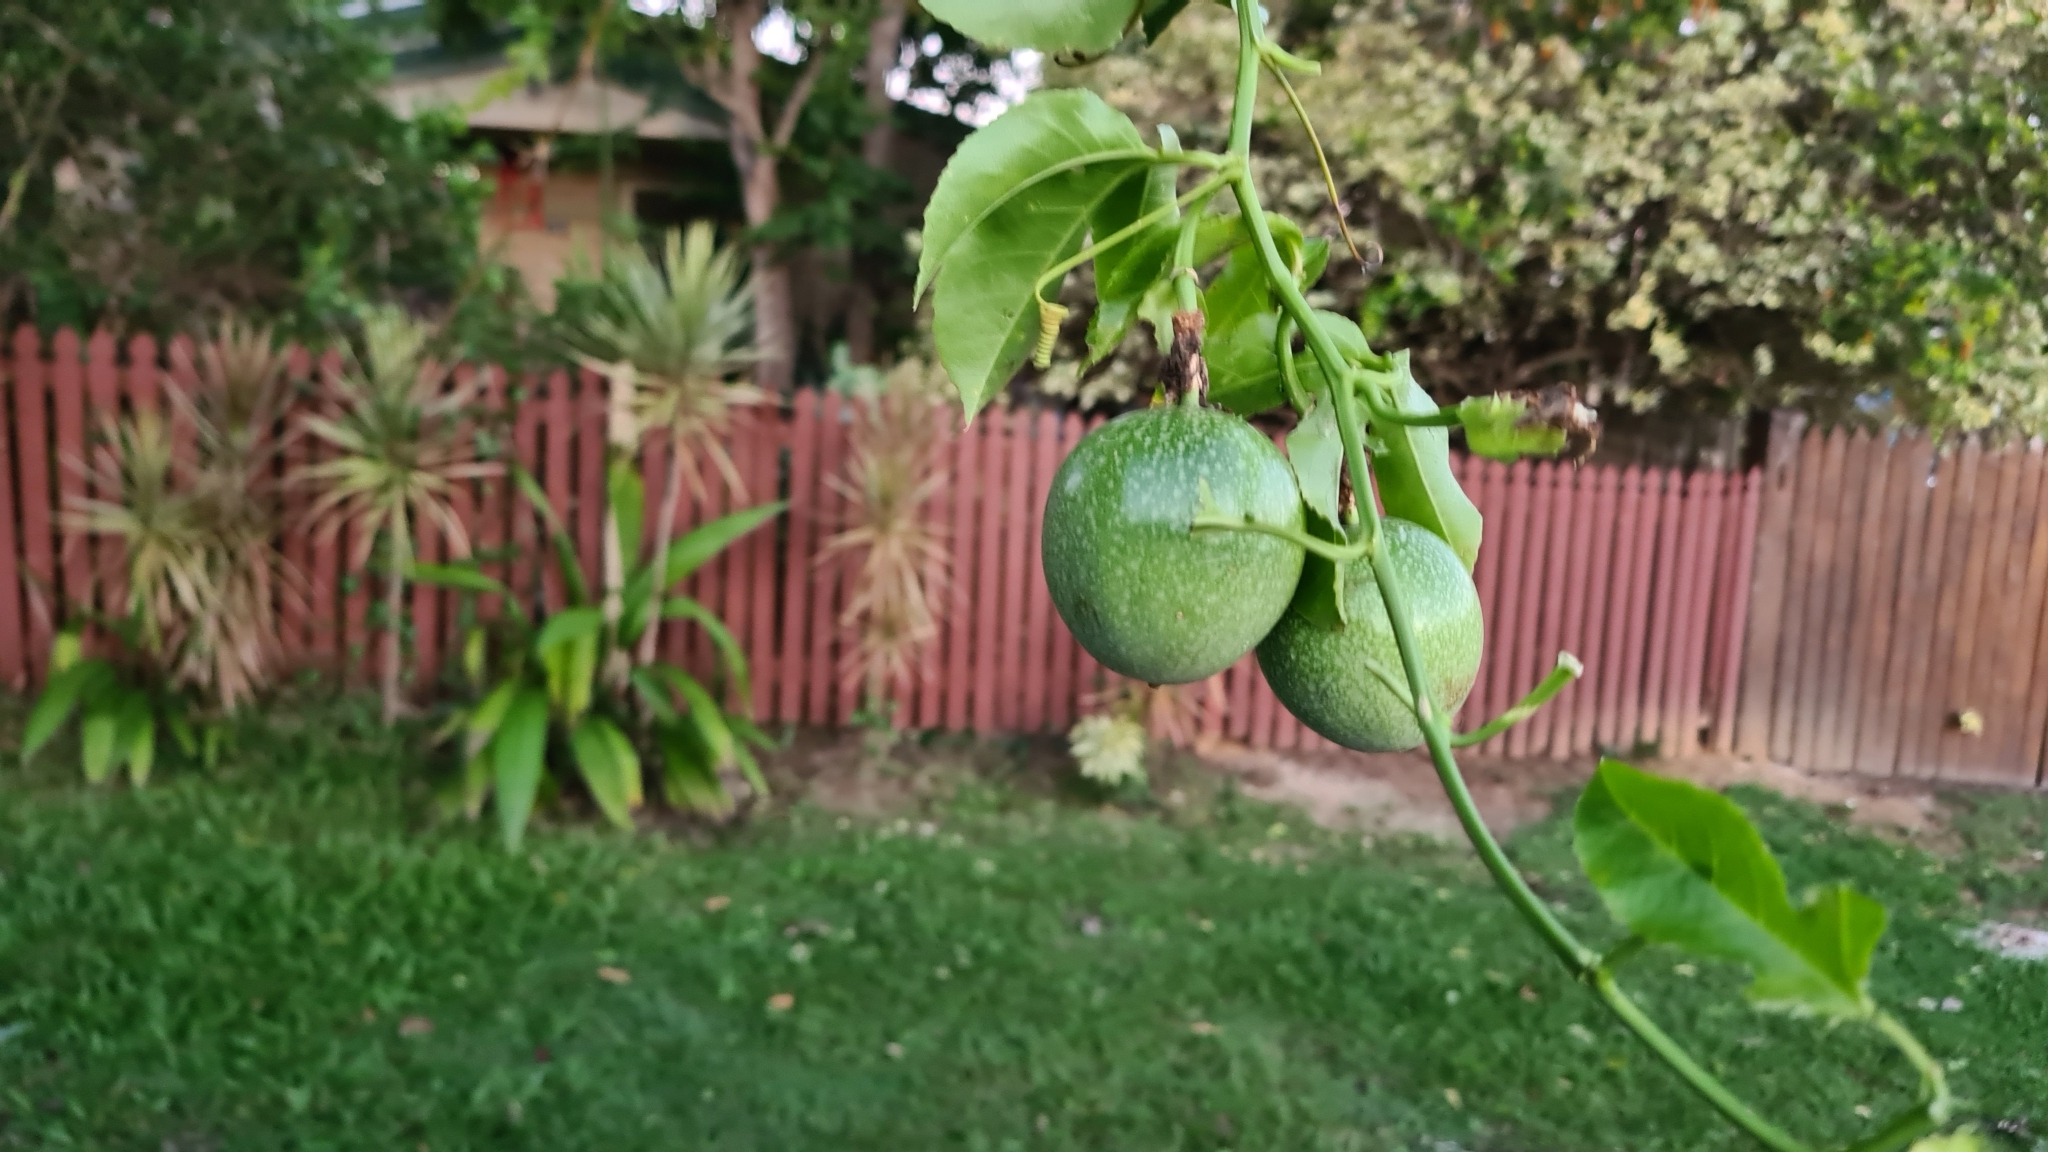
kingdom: Plantae
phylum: Tracheophyta
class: Magnoliopsida
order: Malpighiales
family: Passifloraceae
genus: Passiflora
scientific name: Passiflora edulis
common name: Purple granadilla
